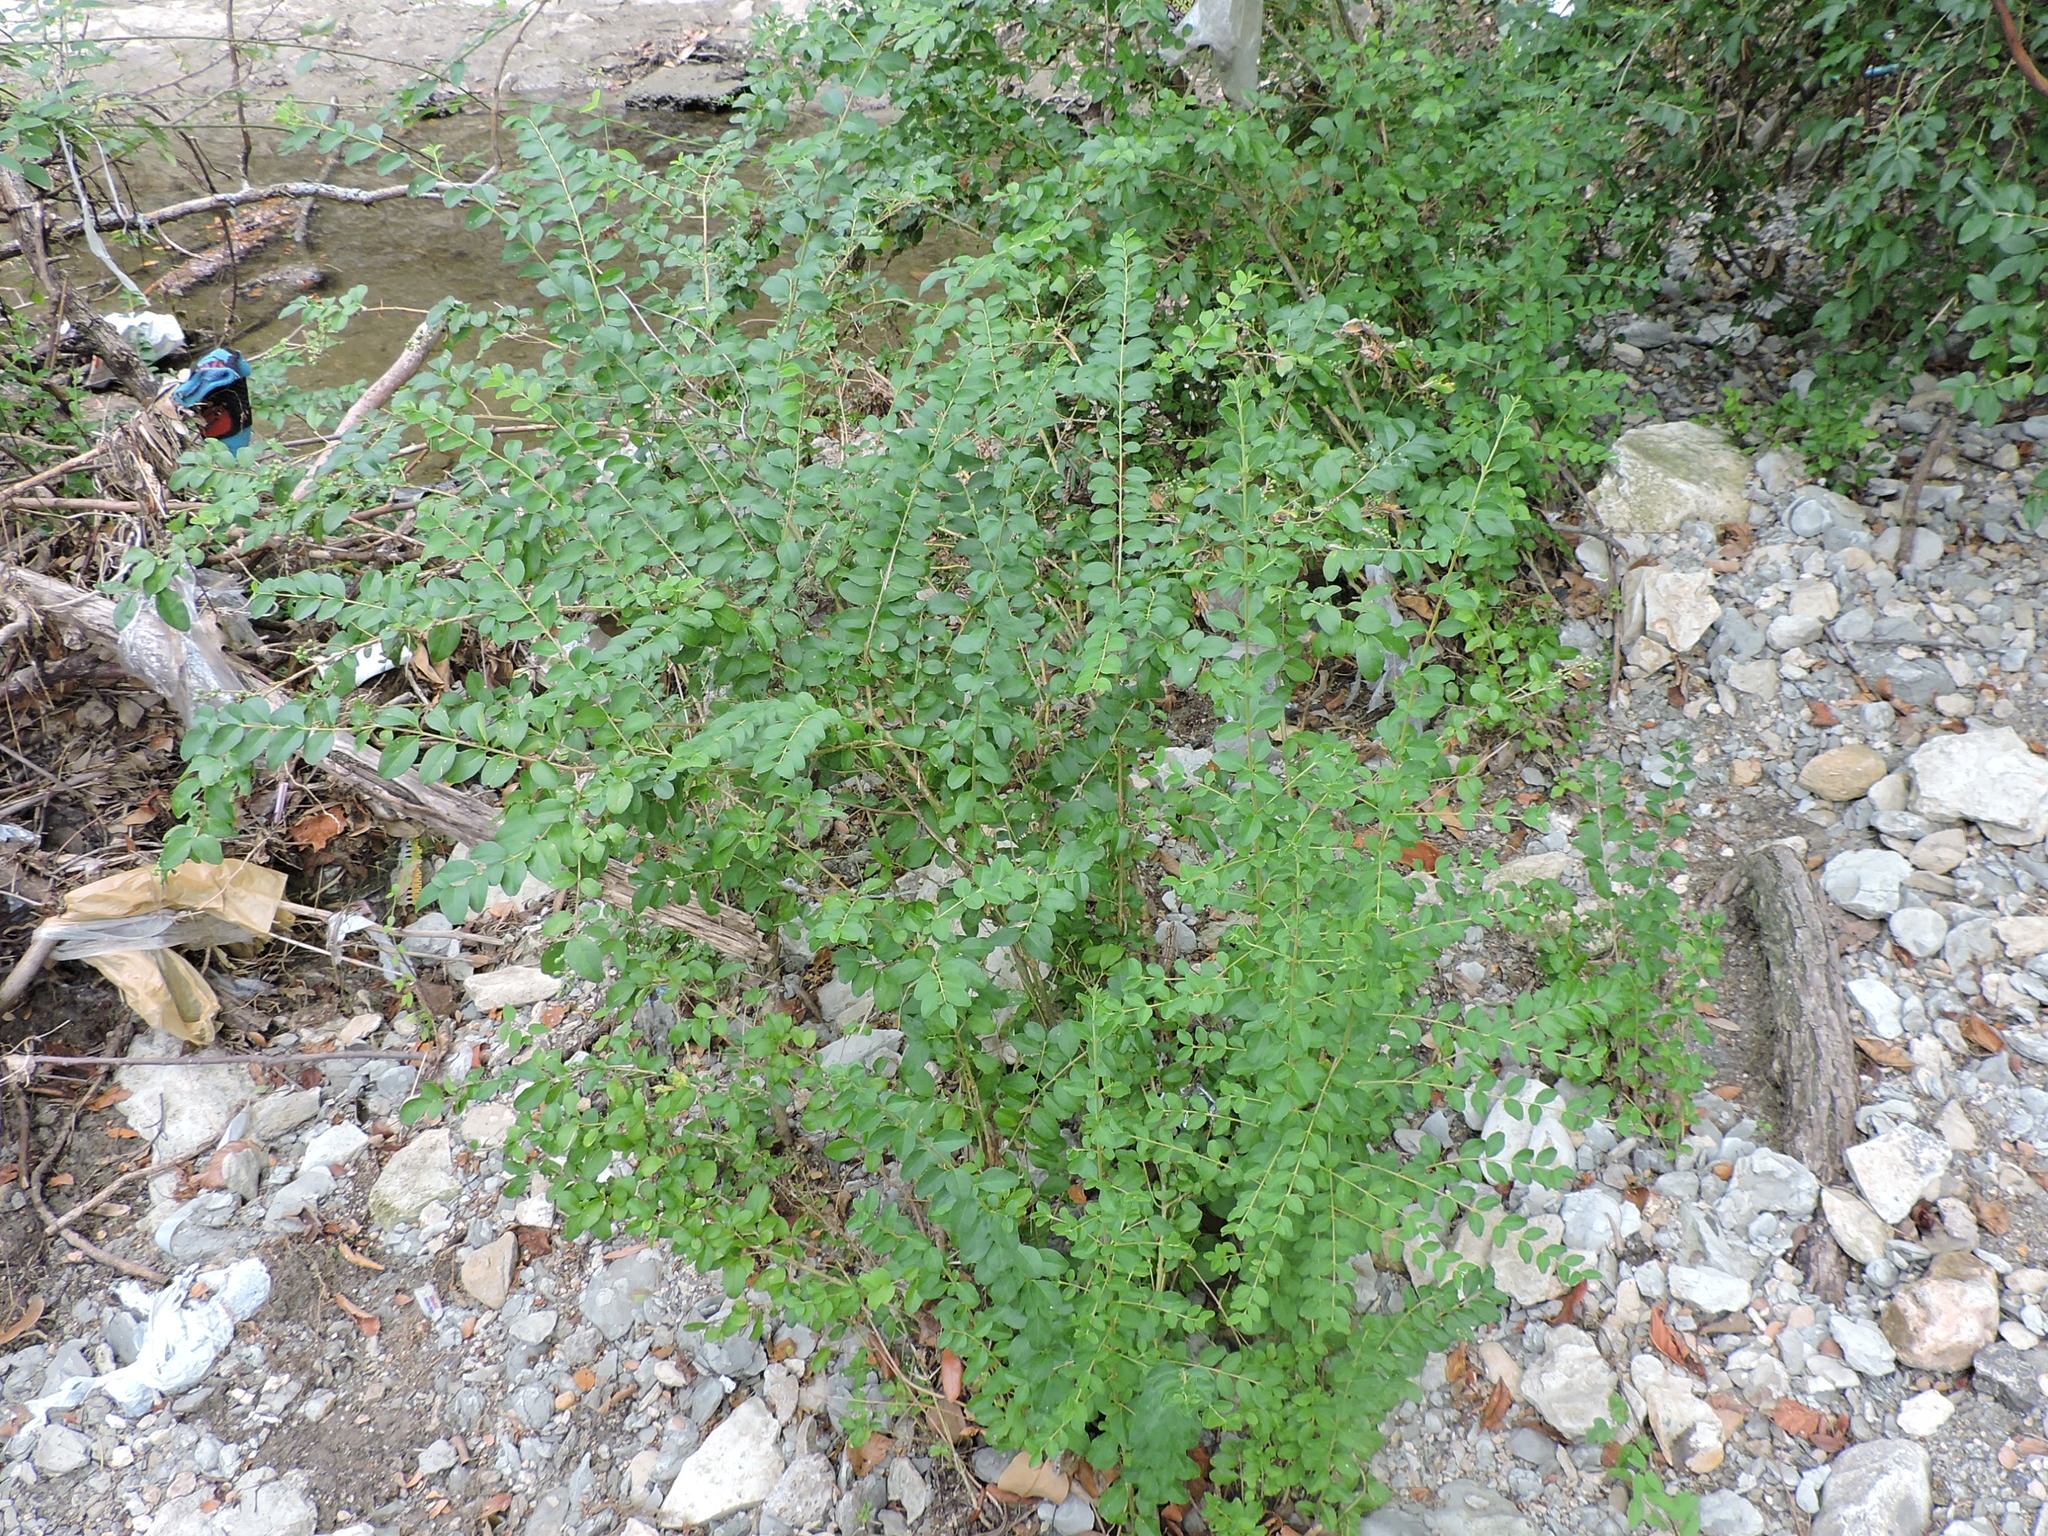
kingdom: Plantae
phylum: Tracheophyta
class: Magnoliopsida
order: Lamiales
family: Oleaceae
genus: Ligustrum
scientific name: Ligustrum sinense
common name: Chinese privet
